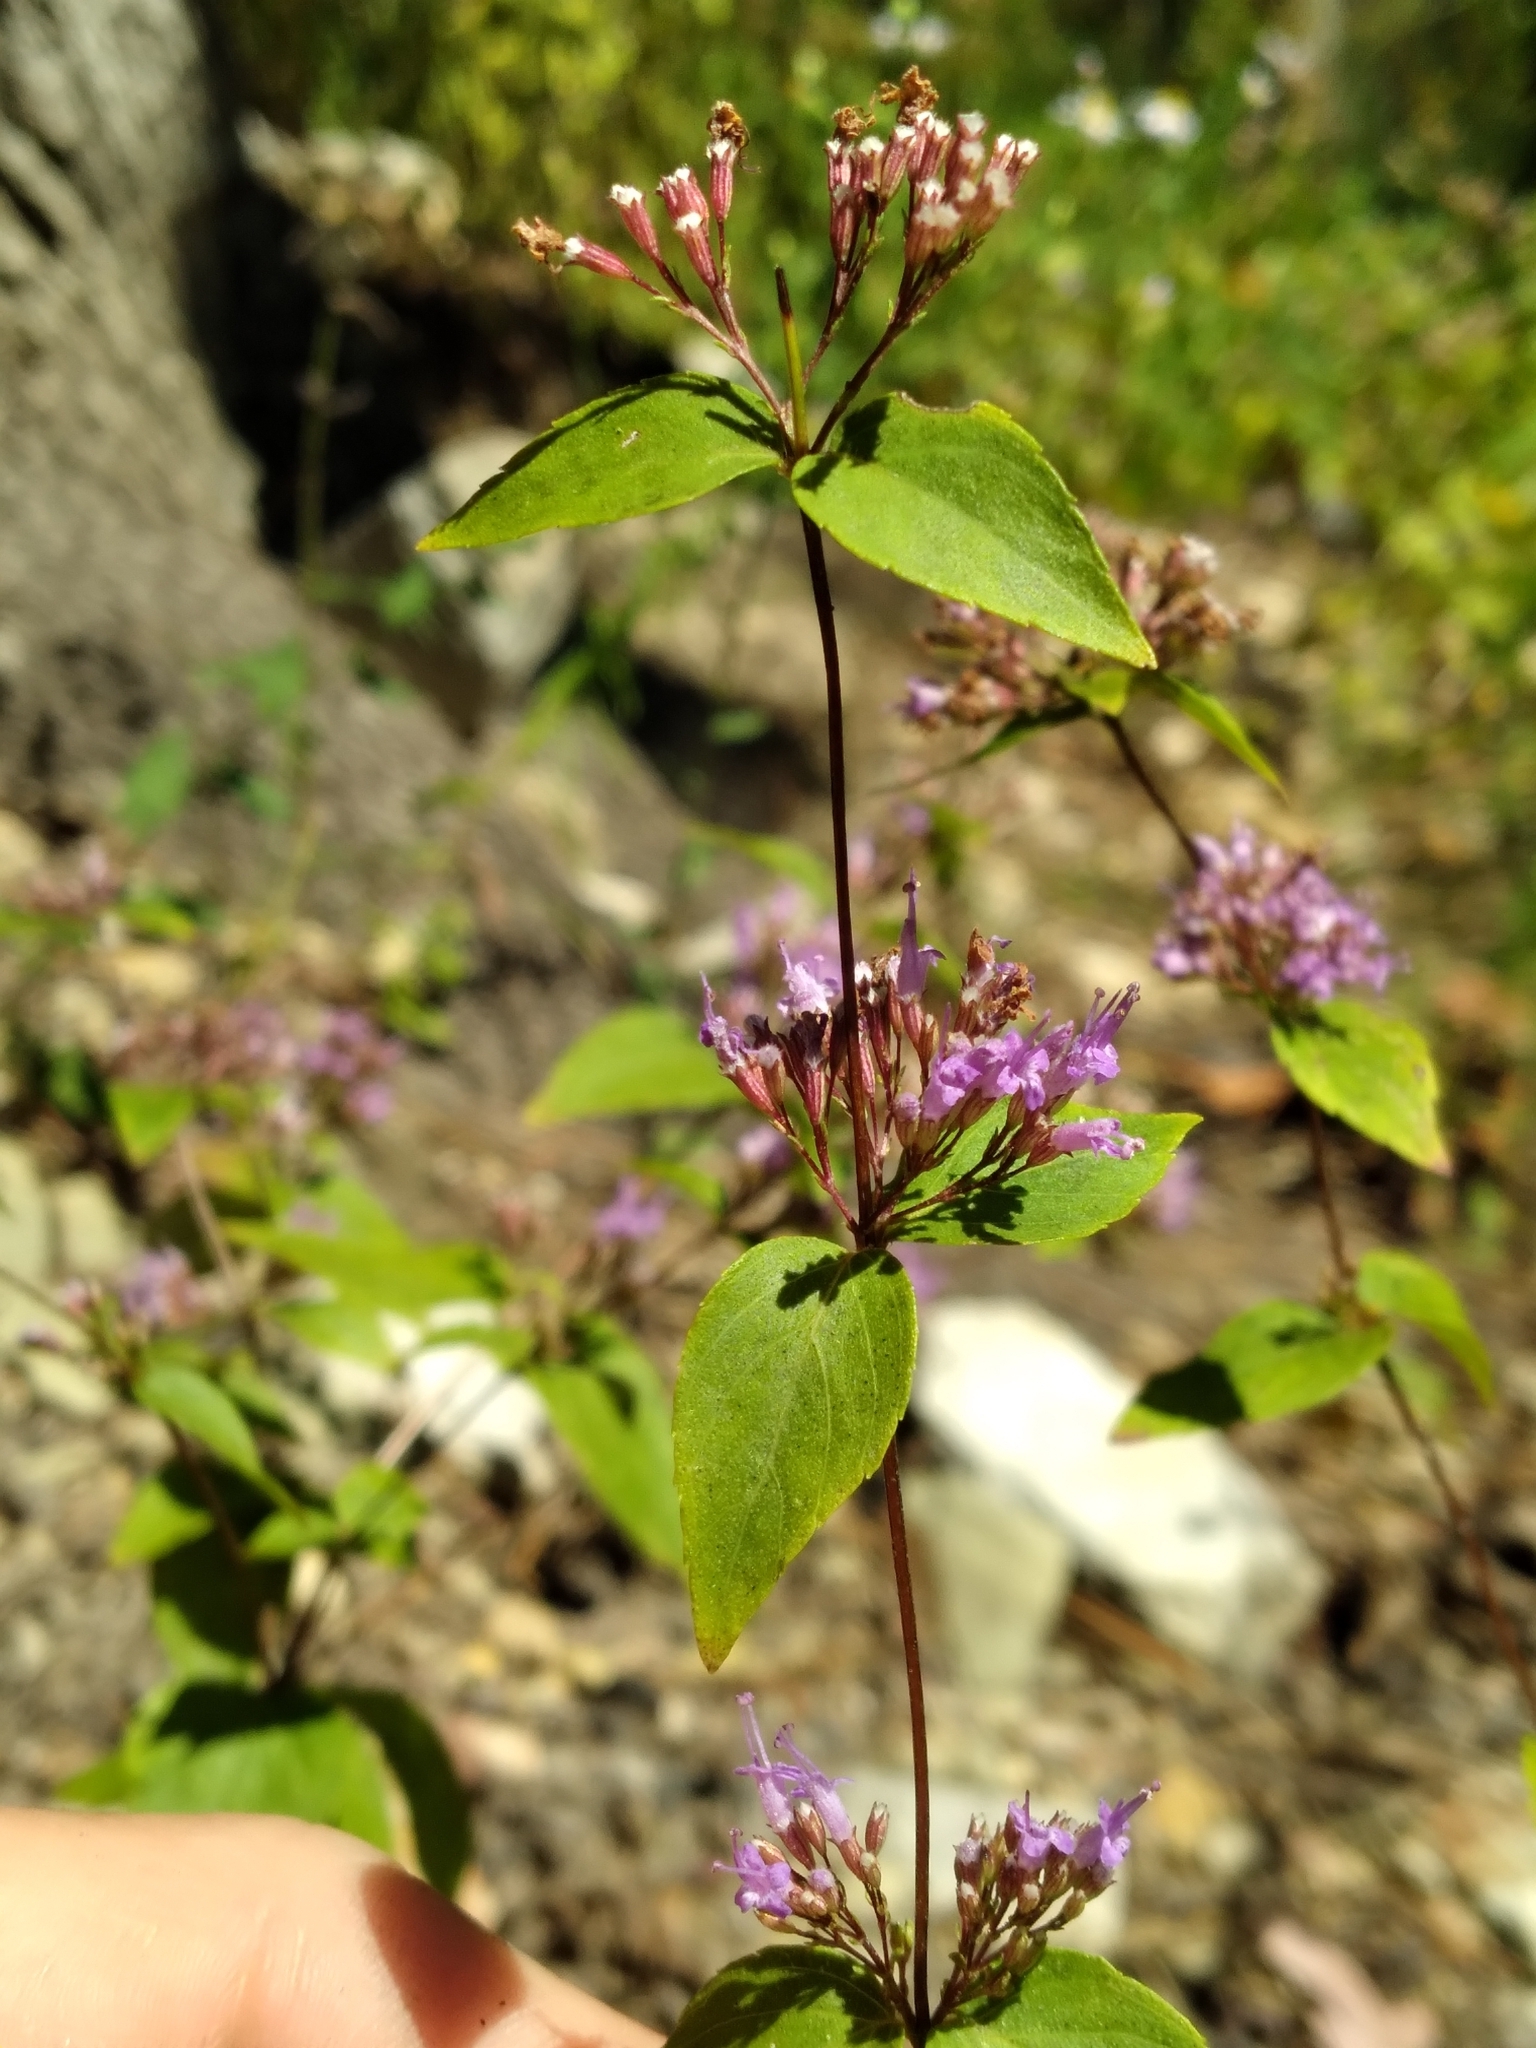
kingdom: Plantae
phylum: Tracheophyta
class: Magnoliopsida
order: Lamiales
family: Lamiaceae
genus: Cunila
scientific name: Cunila origanoides
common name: American dittany
